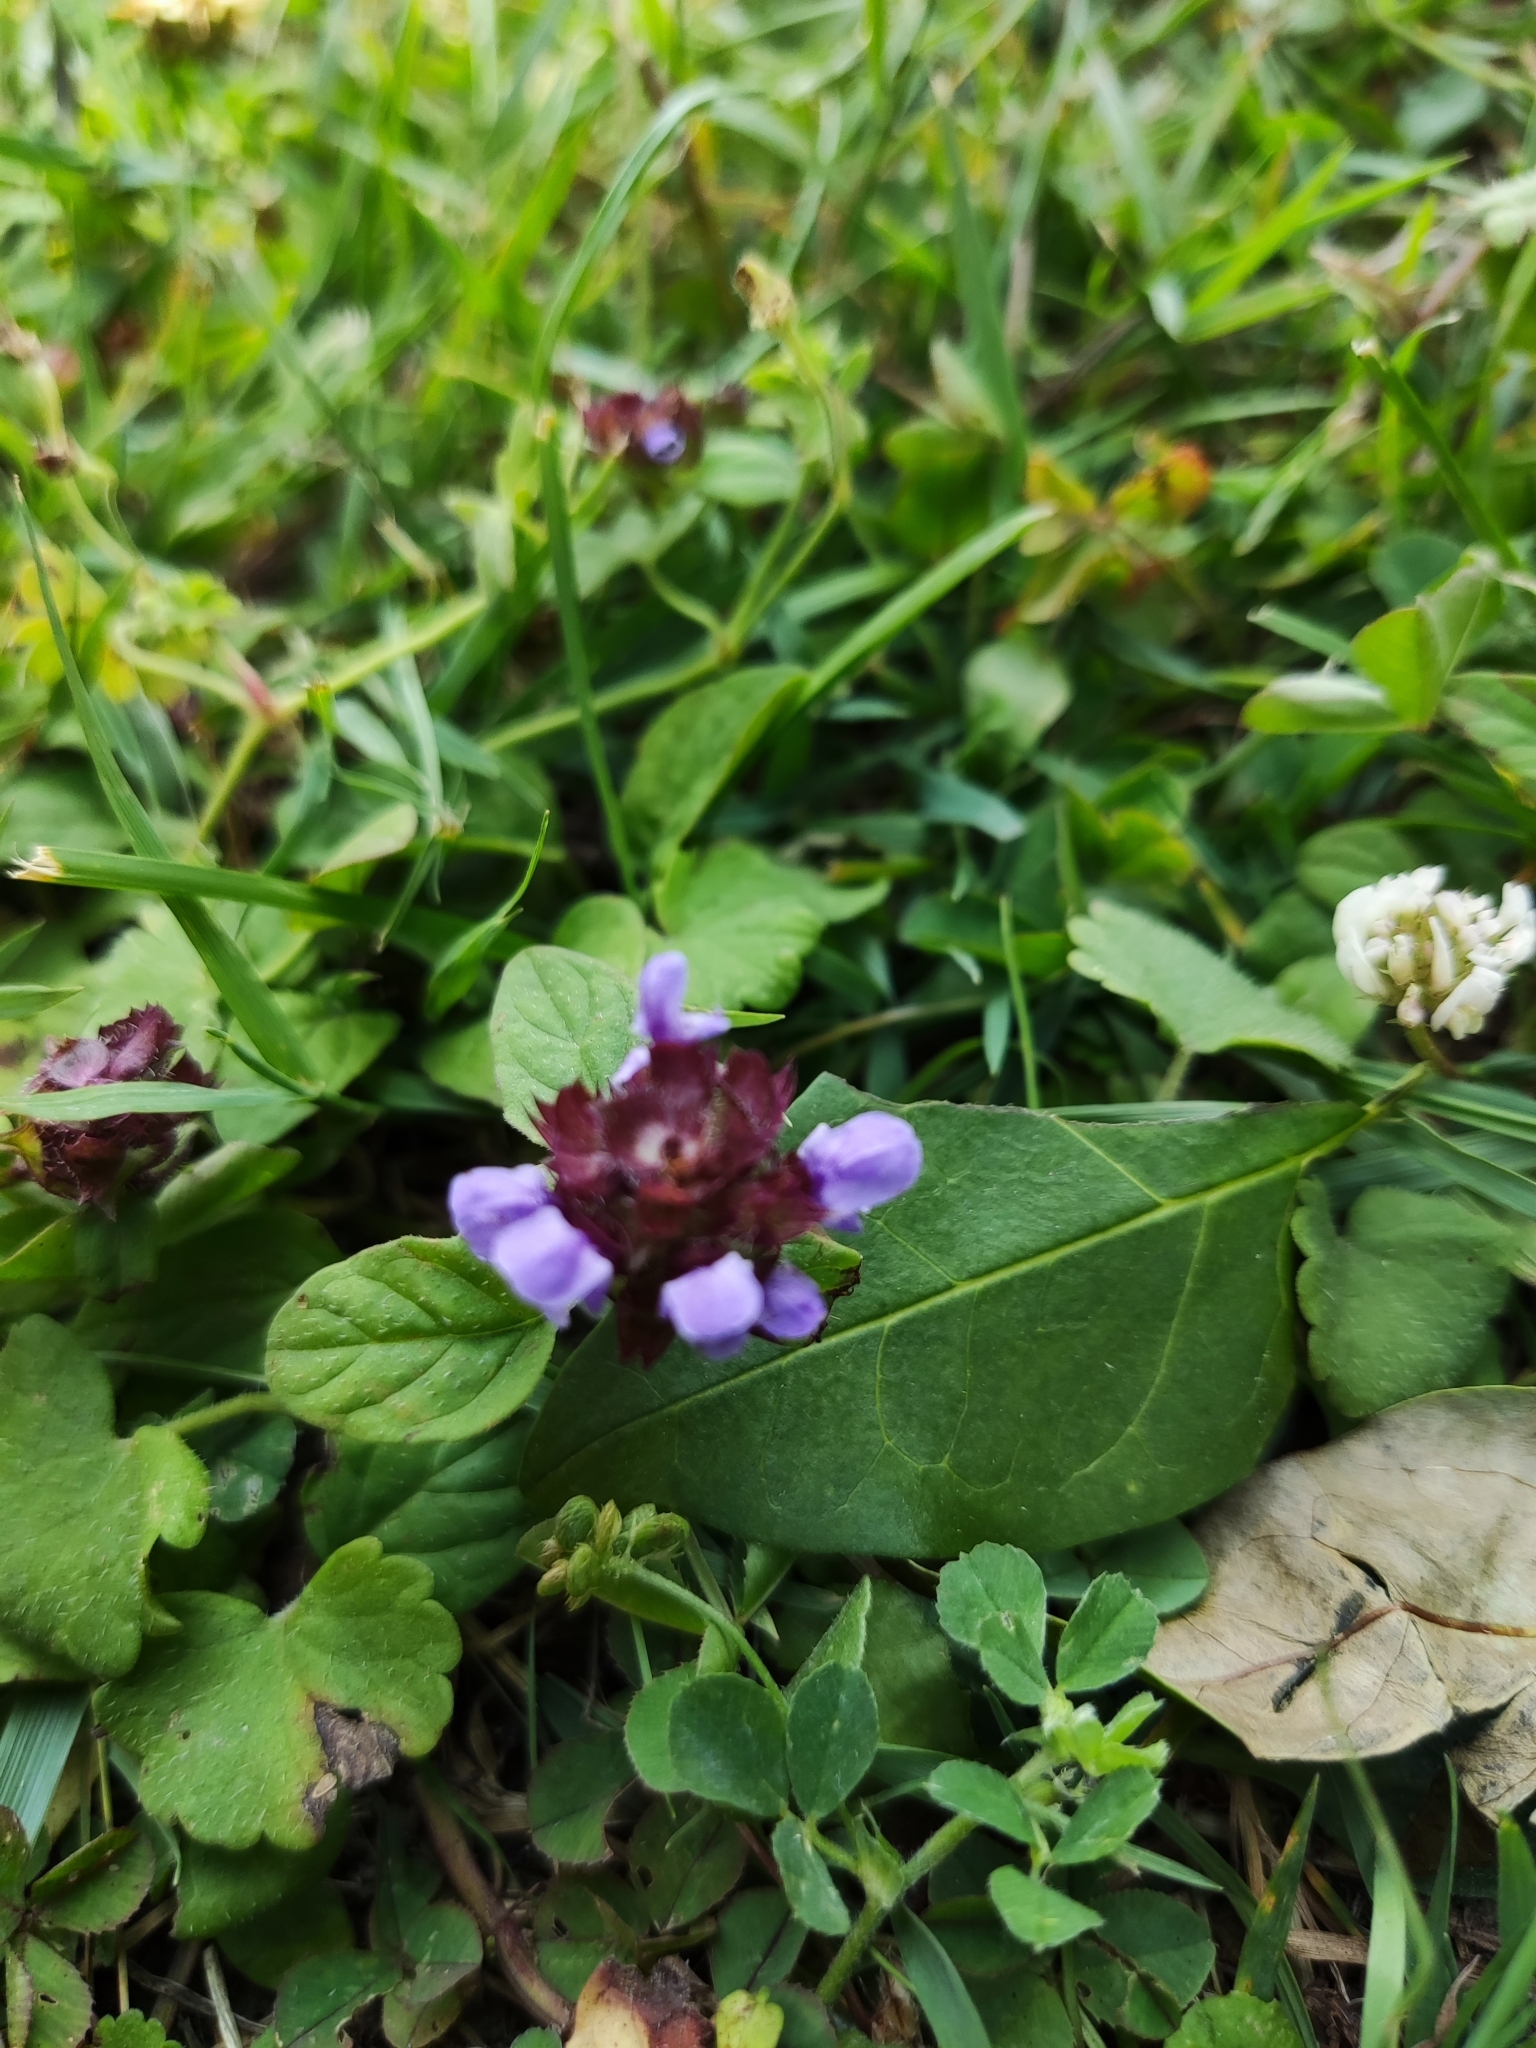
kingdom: Plantae
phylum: Tracheophyta
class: Magnoliopsida
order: Lamiales
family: Lamiaceae
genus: Prunella
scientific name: Prunella vulgaris
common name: Heal-all
